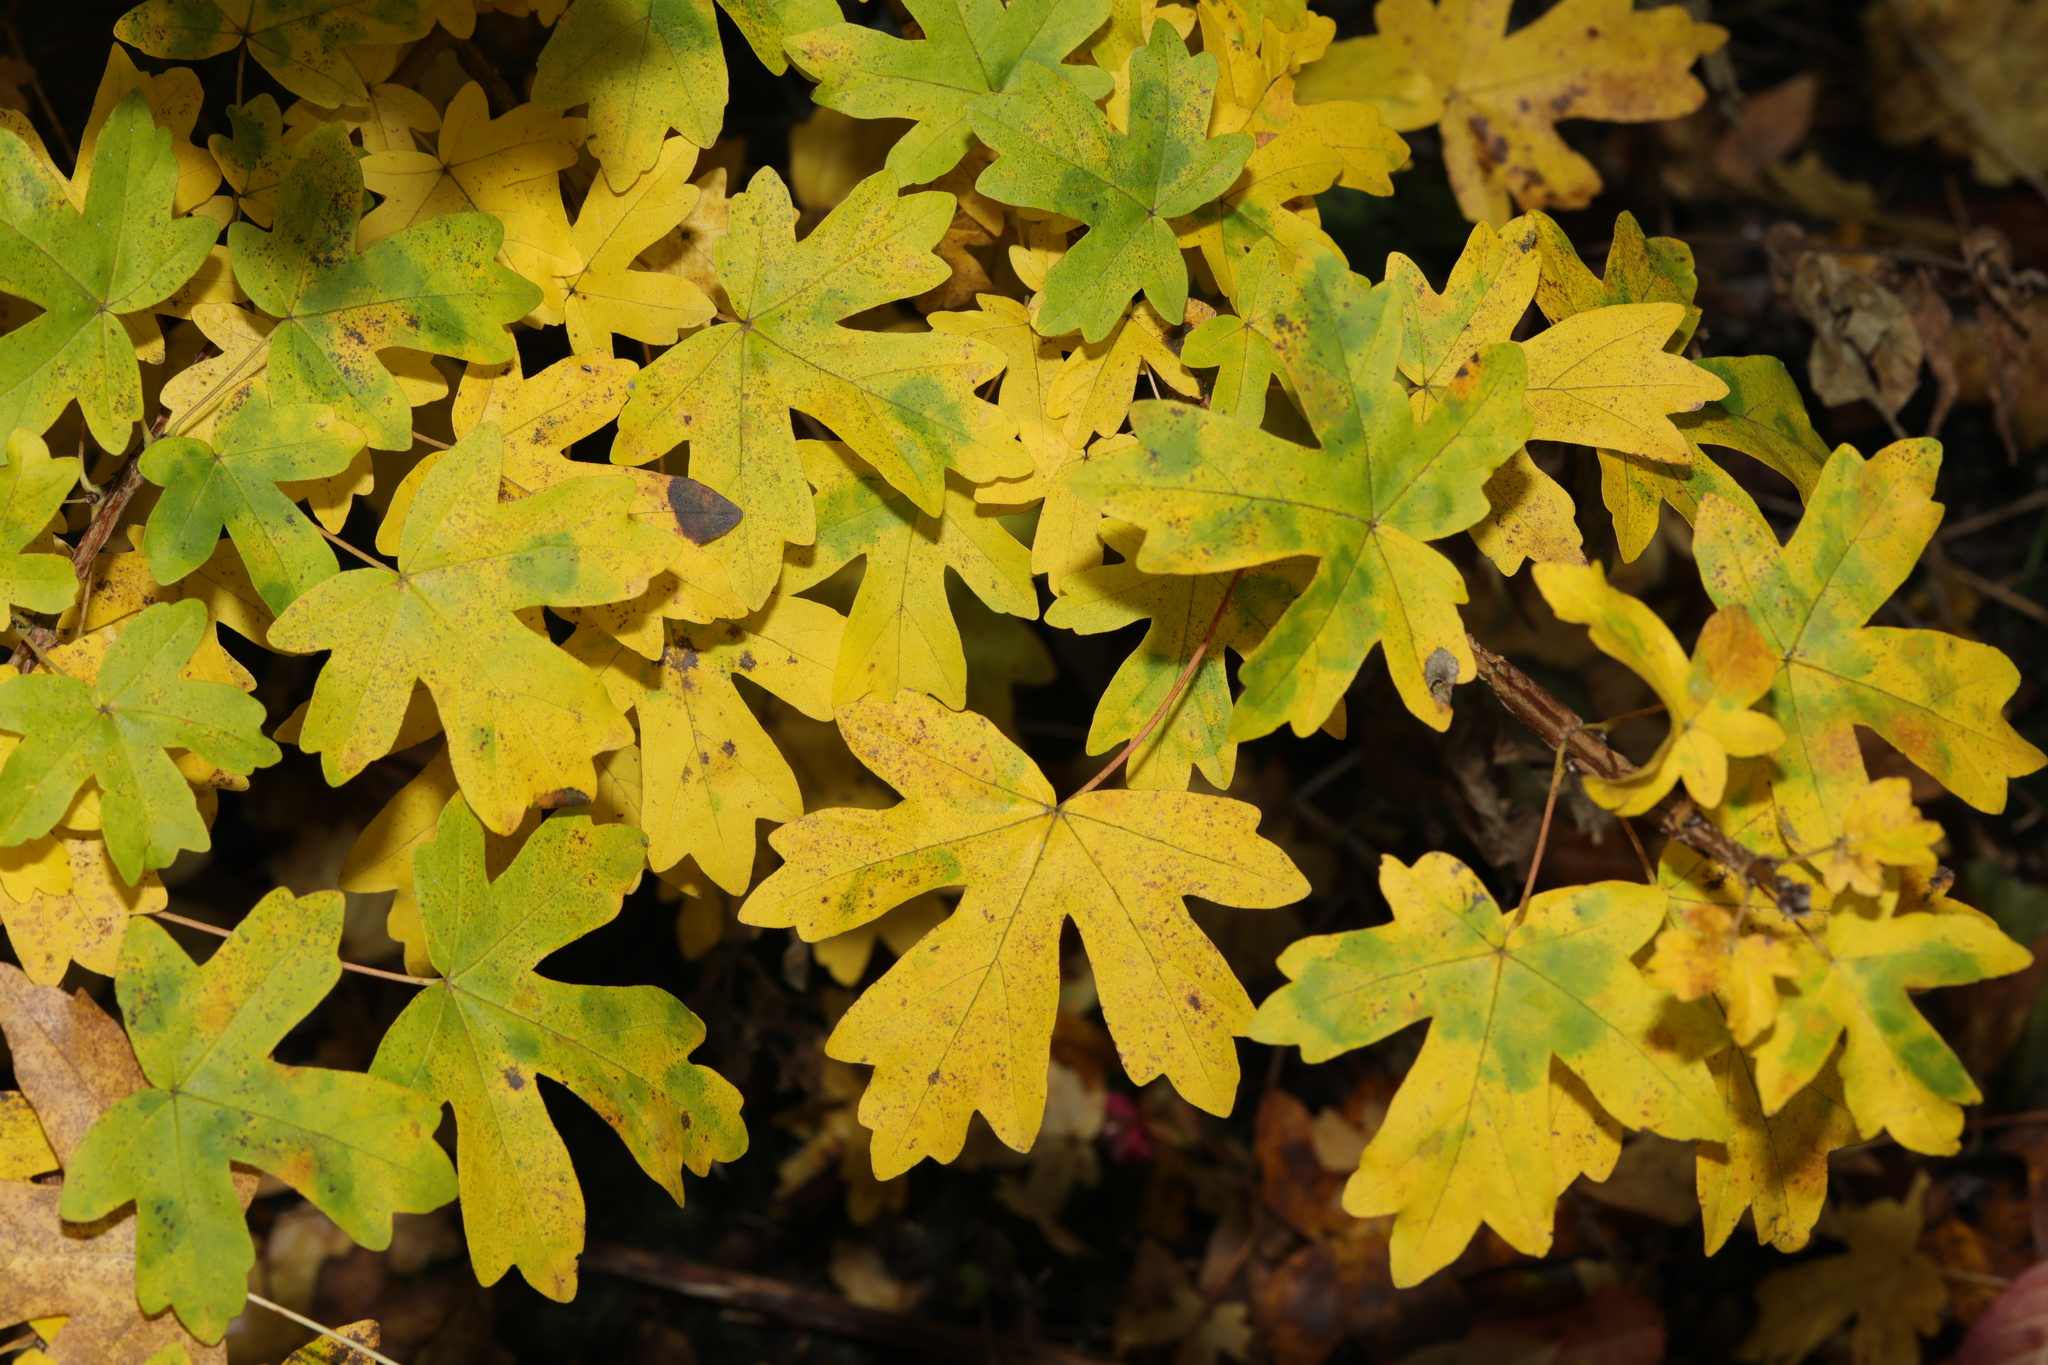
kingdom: Plantae
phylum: Tracheophyta
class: Magnoliopsida
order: Sapindales
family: Sapindaceae
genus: Acer
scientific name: Acer campestre
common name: Field maple
